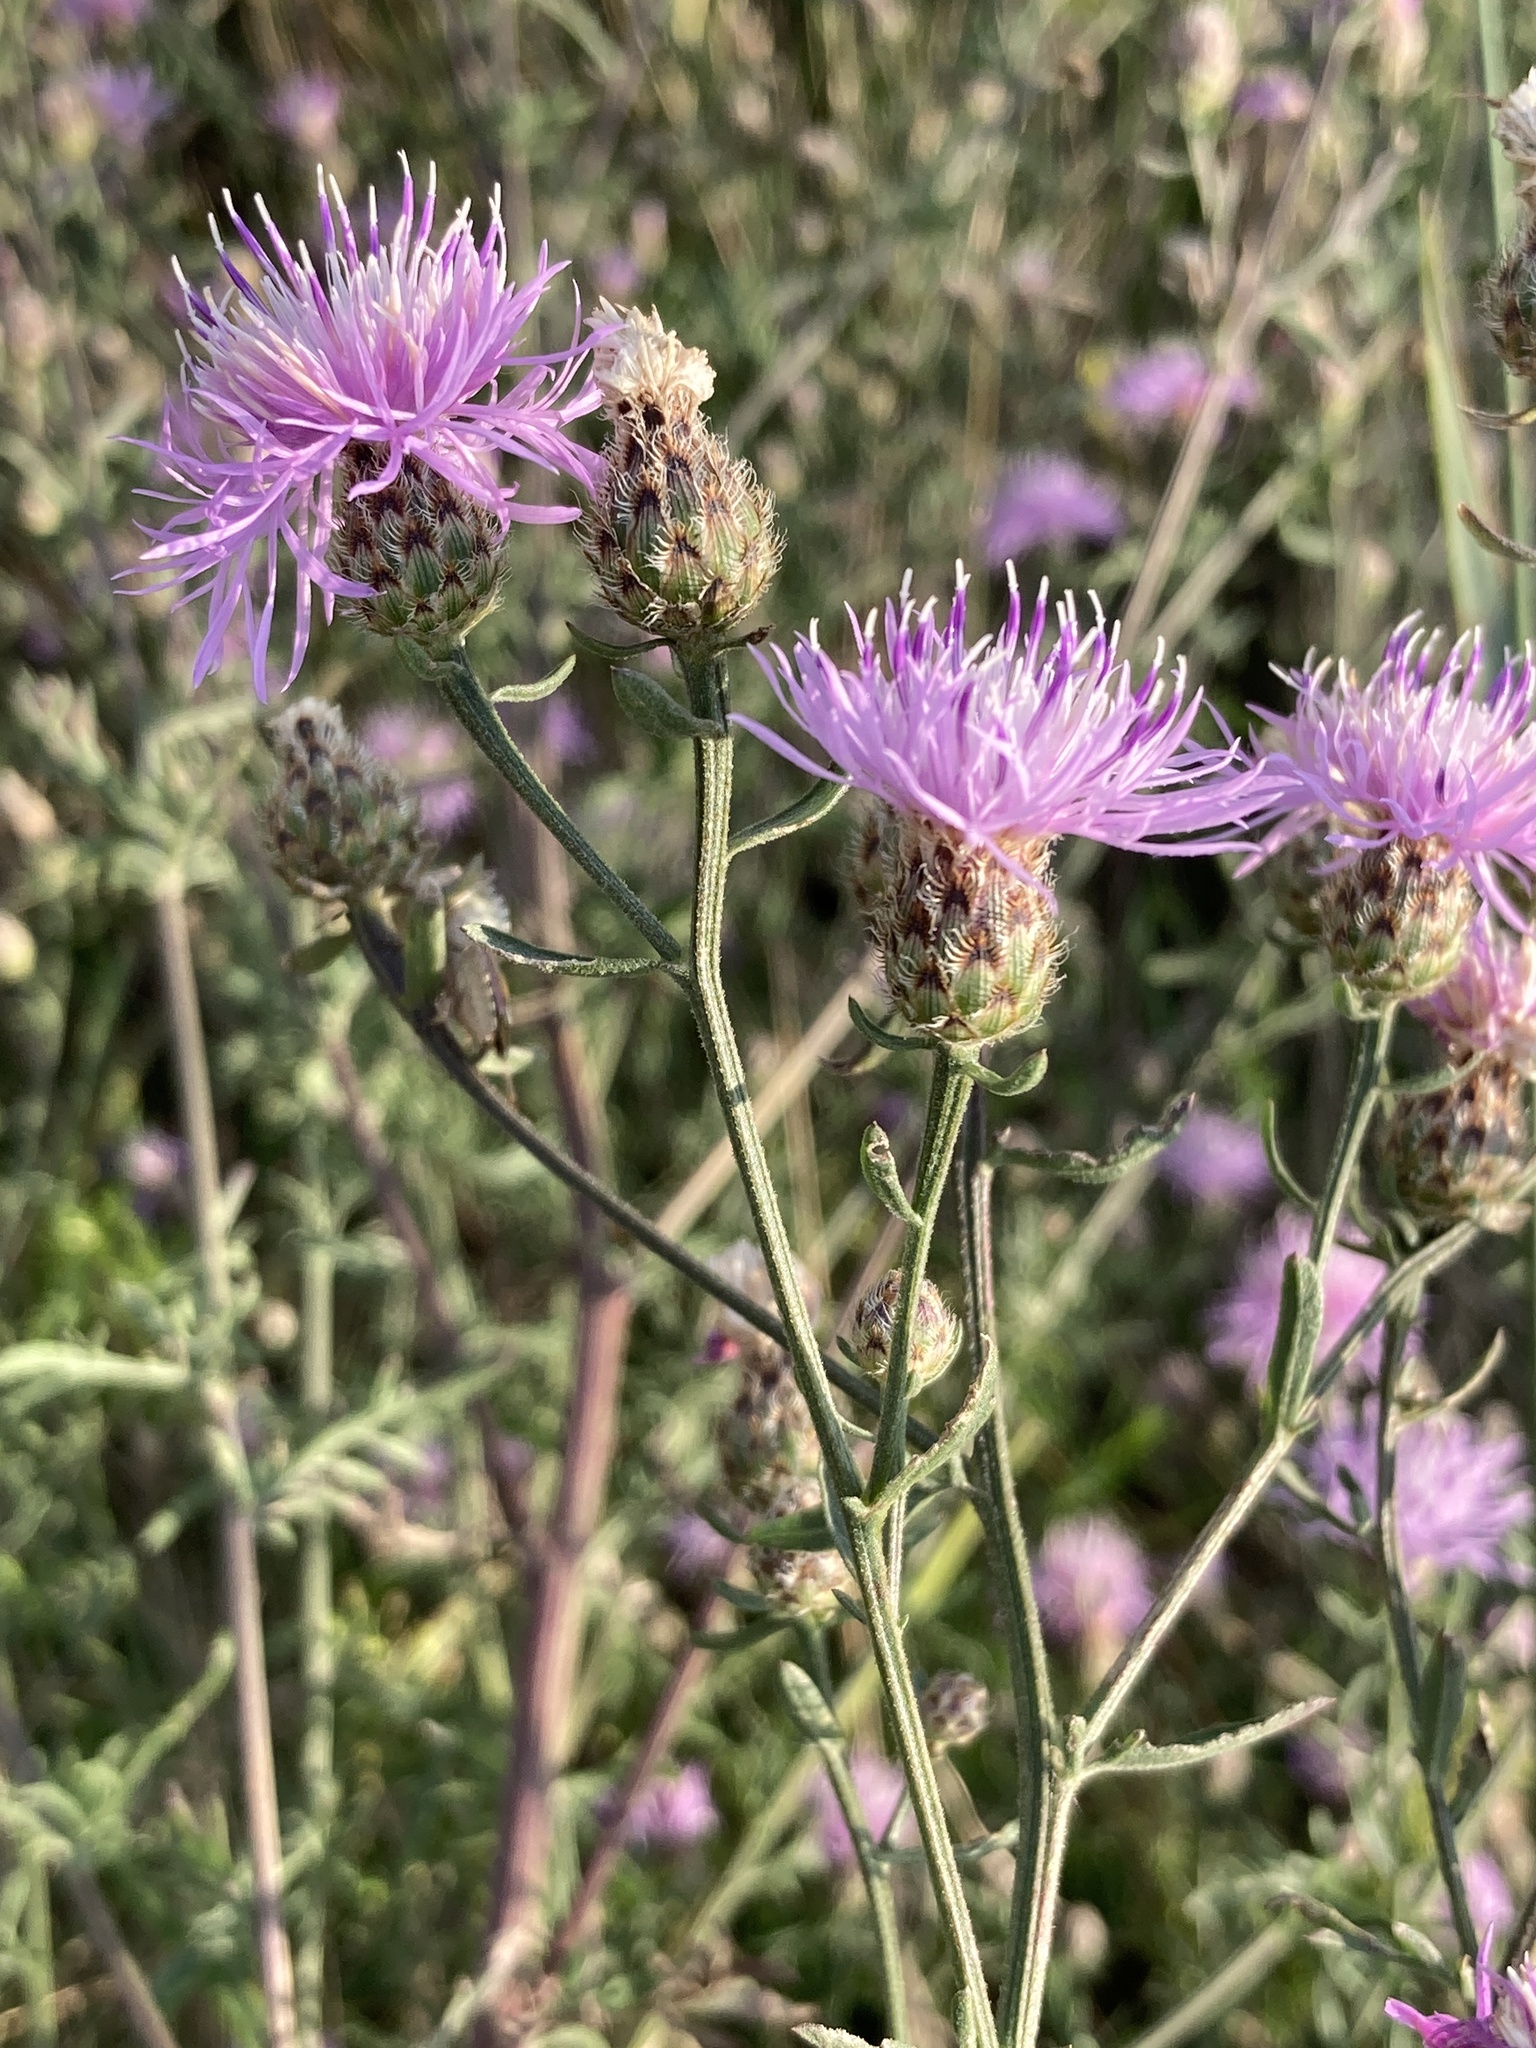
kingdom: Plantae
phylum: Tracheophyta
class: Magnoliopsida
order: Asterales
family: Asteraceae
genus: Centaurea
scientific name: Centaurea stoebe
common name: Spotted knapweed
